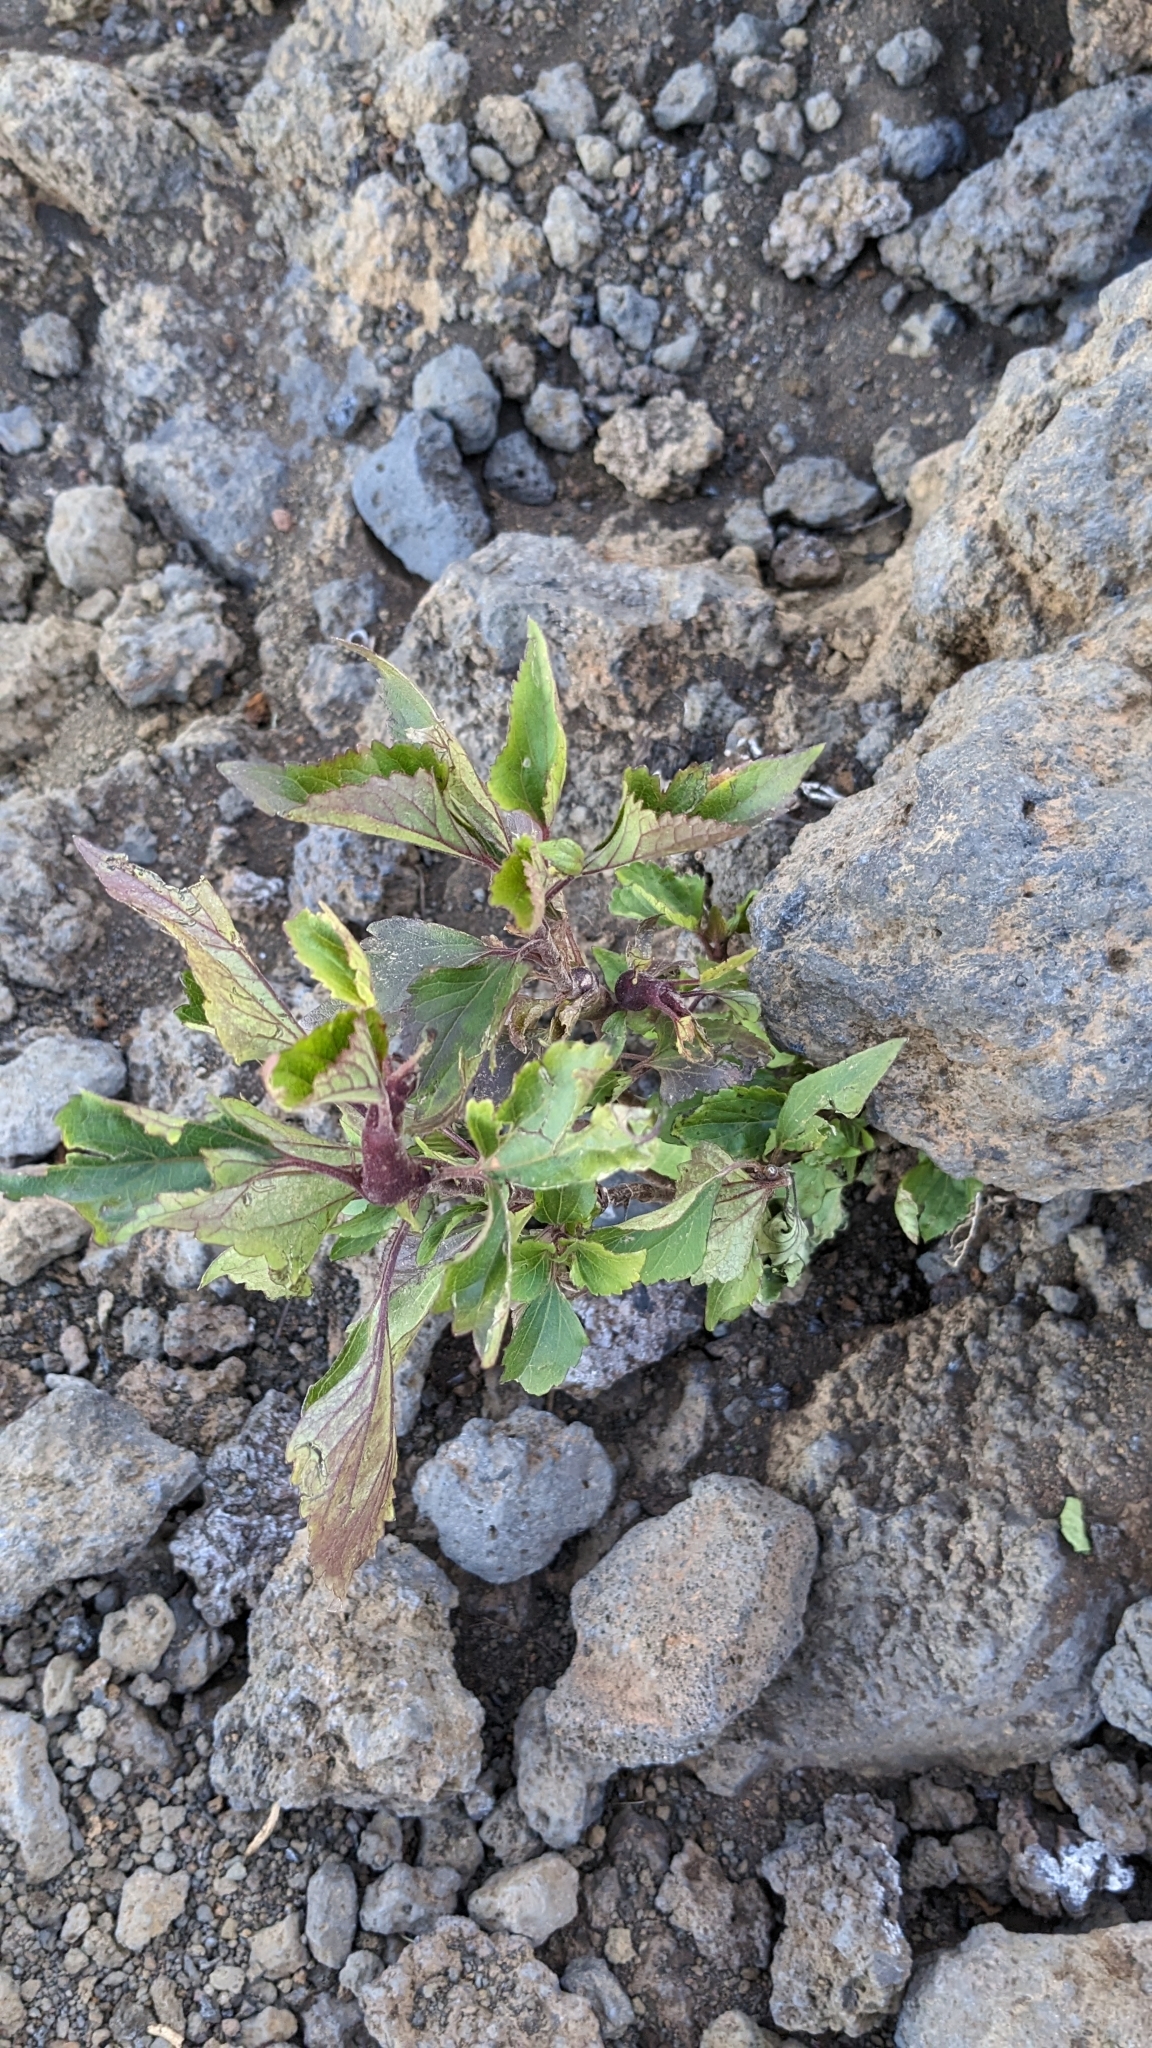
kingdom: Plantae
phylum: Tracheophyta
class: Magnoliopsida
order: Asterales
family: Asteraceae
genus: Ageratina
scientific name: Ageratina adenophora
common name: Sticky snakeroot
